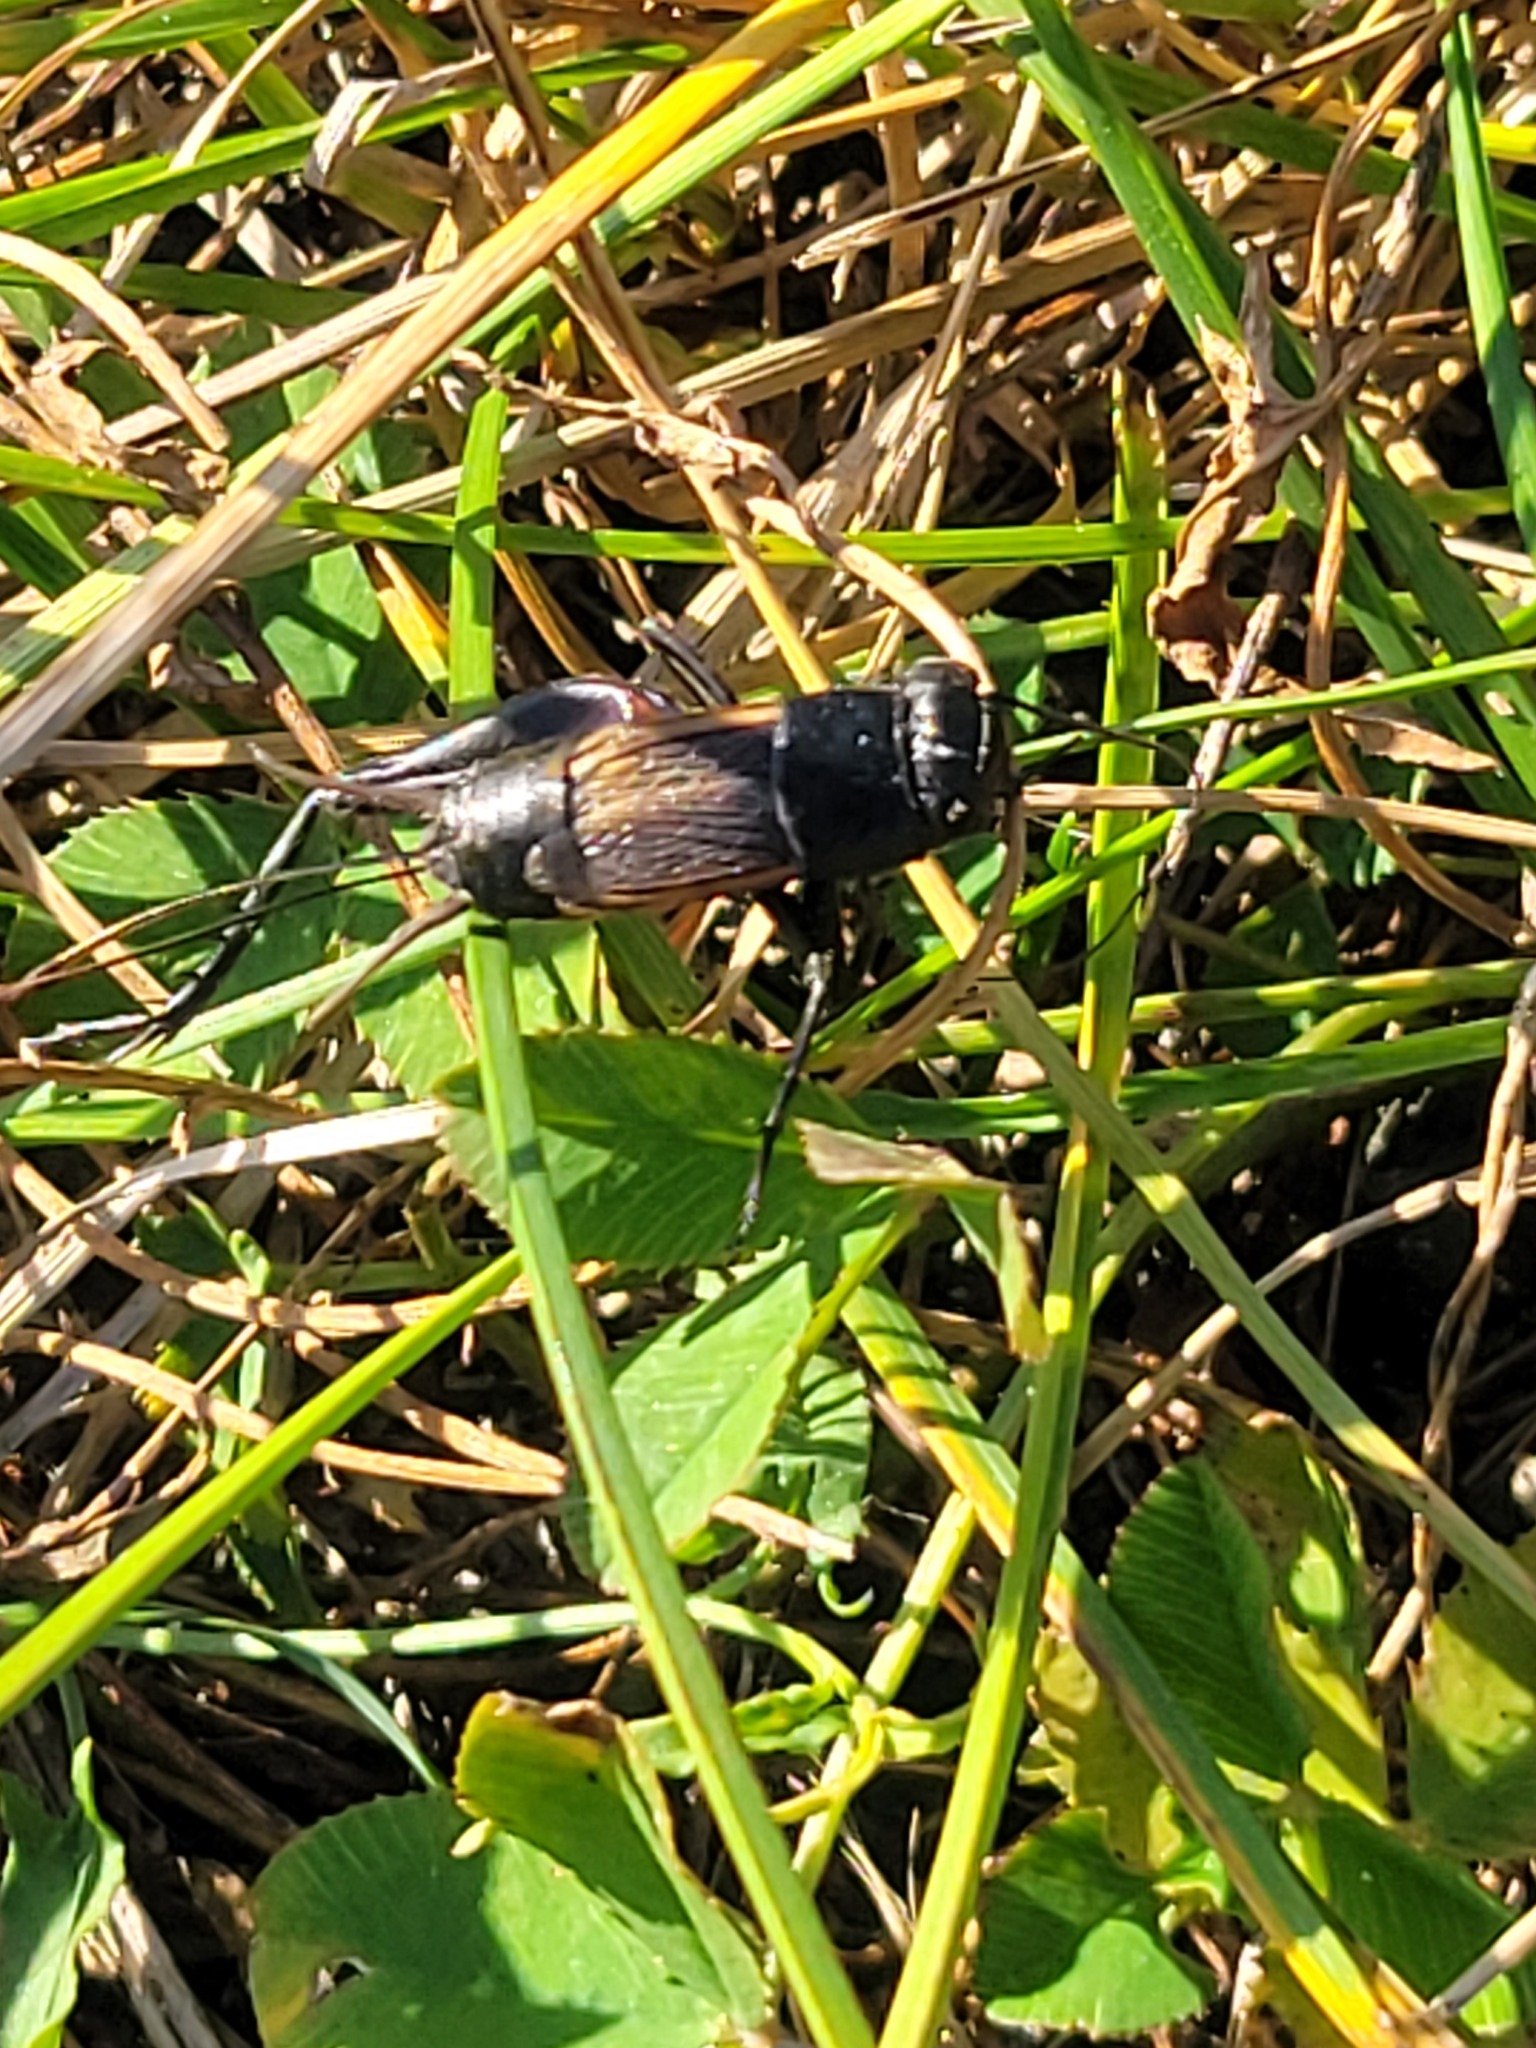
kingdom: Animalia
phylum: Arthropoda
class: Insecta
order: Orthoptera
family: Gryllidae
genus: Gryllus
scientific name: Gryllus pennsylvanicus
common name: Fall field cricket
